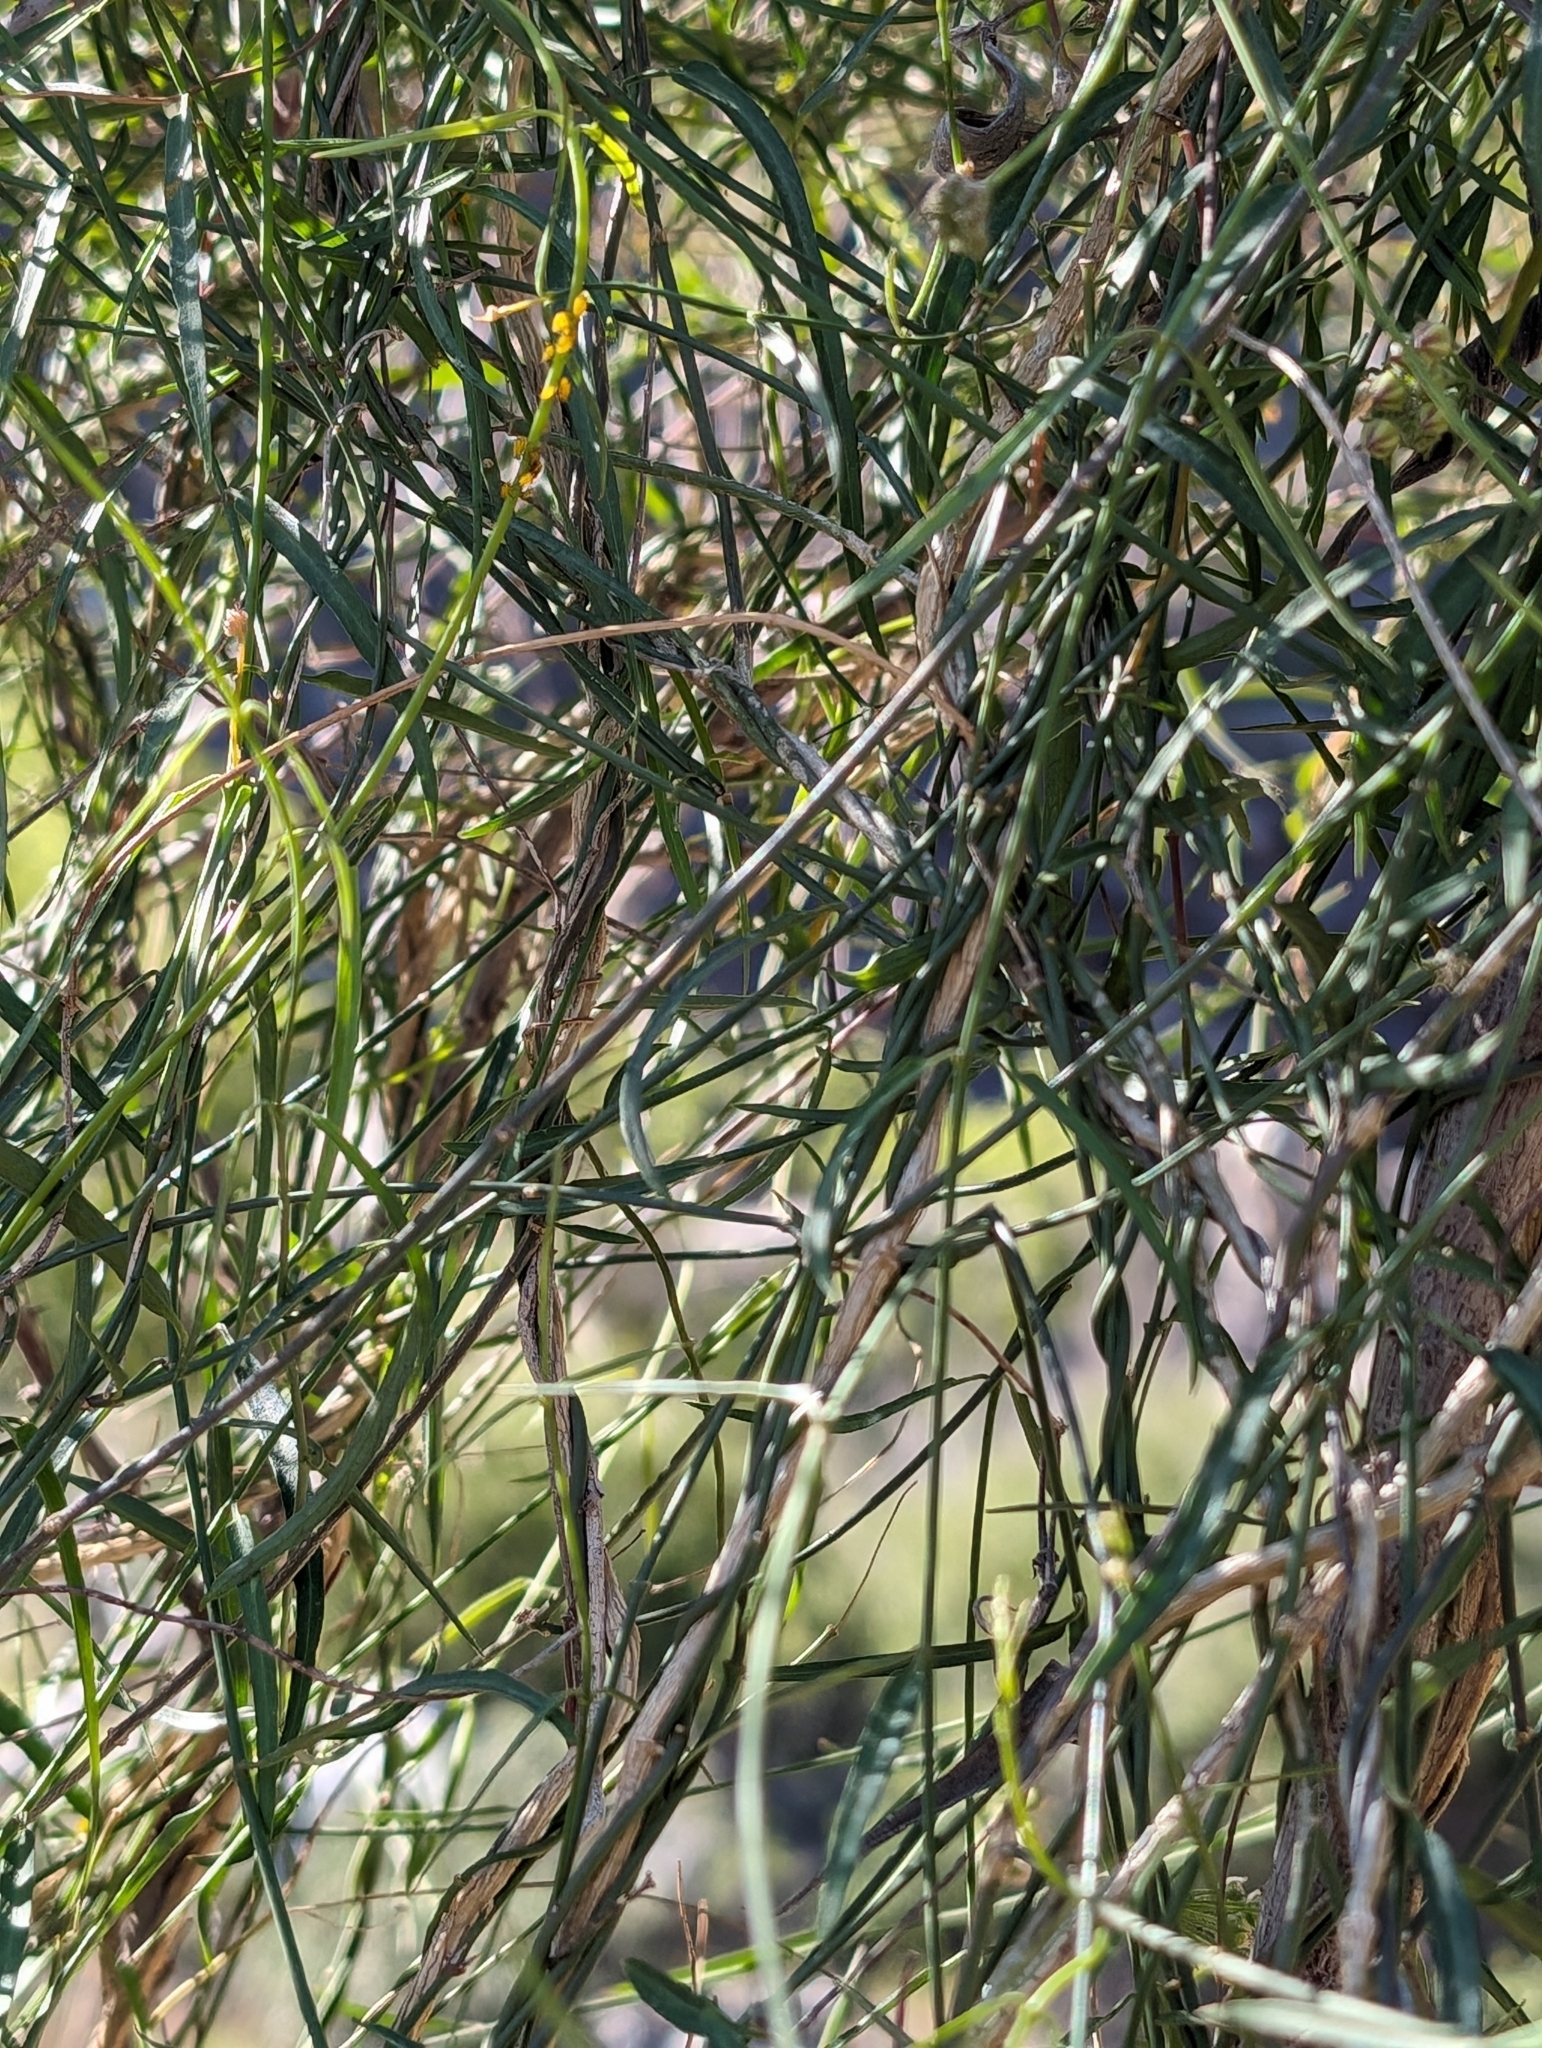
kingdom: Plantae
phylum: Tracheophyta
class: Magnoliopsida
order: Gentianales
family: Apocynaceae
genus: Funastrum
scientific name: Funastrum heterophyllum
